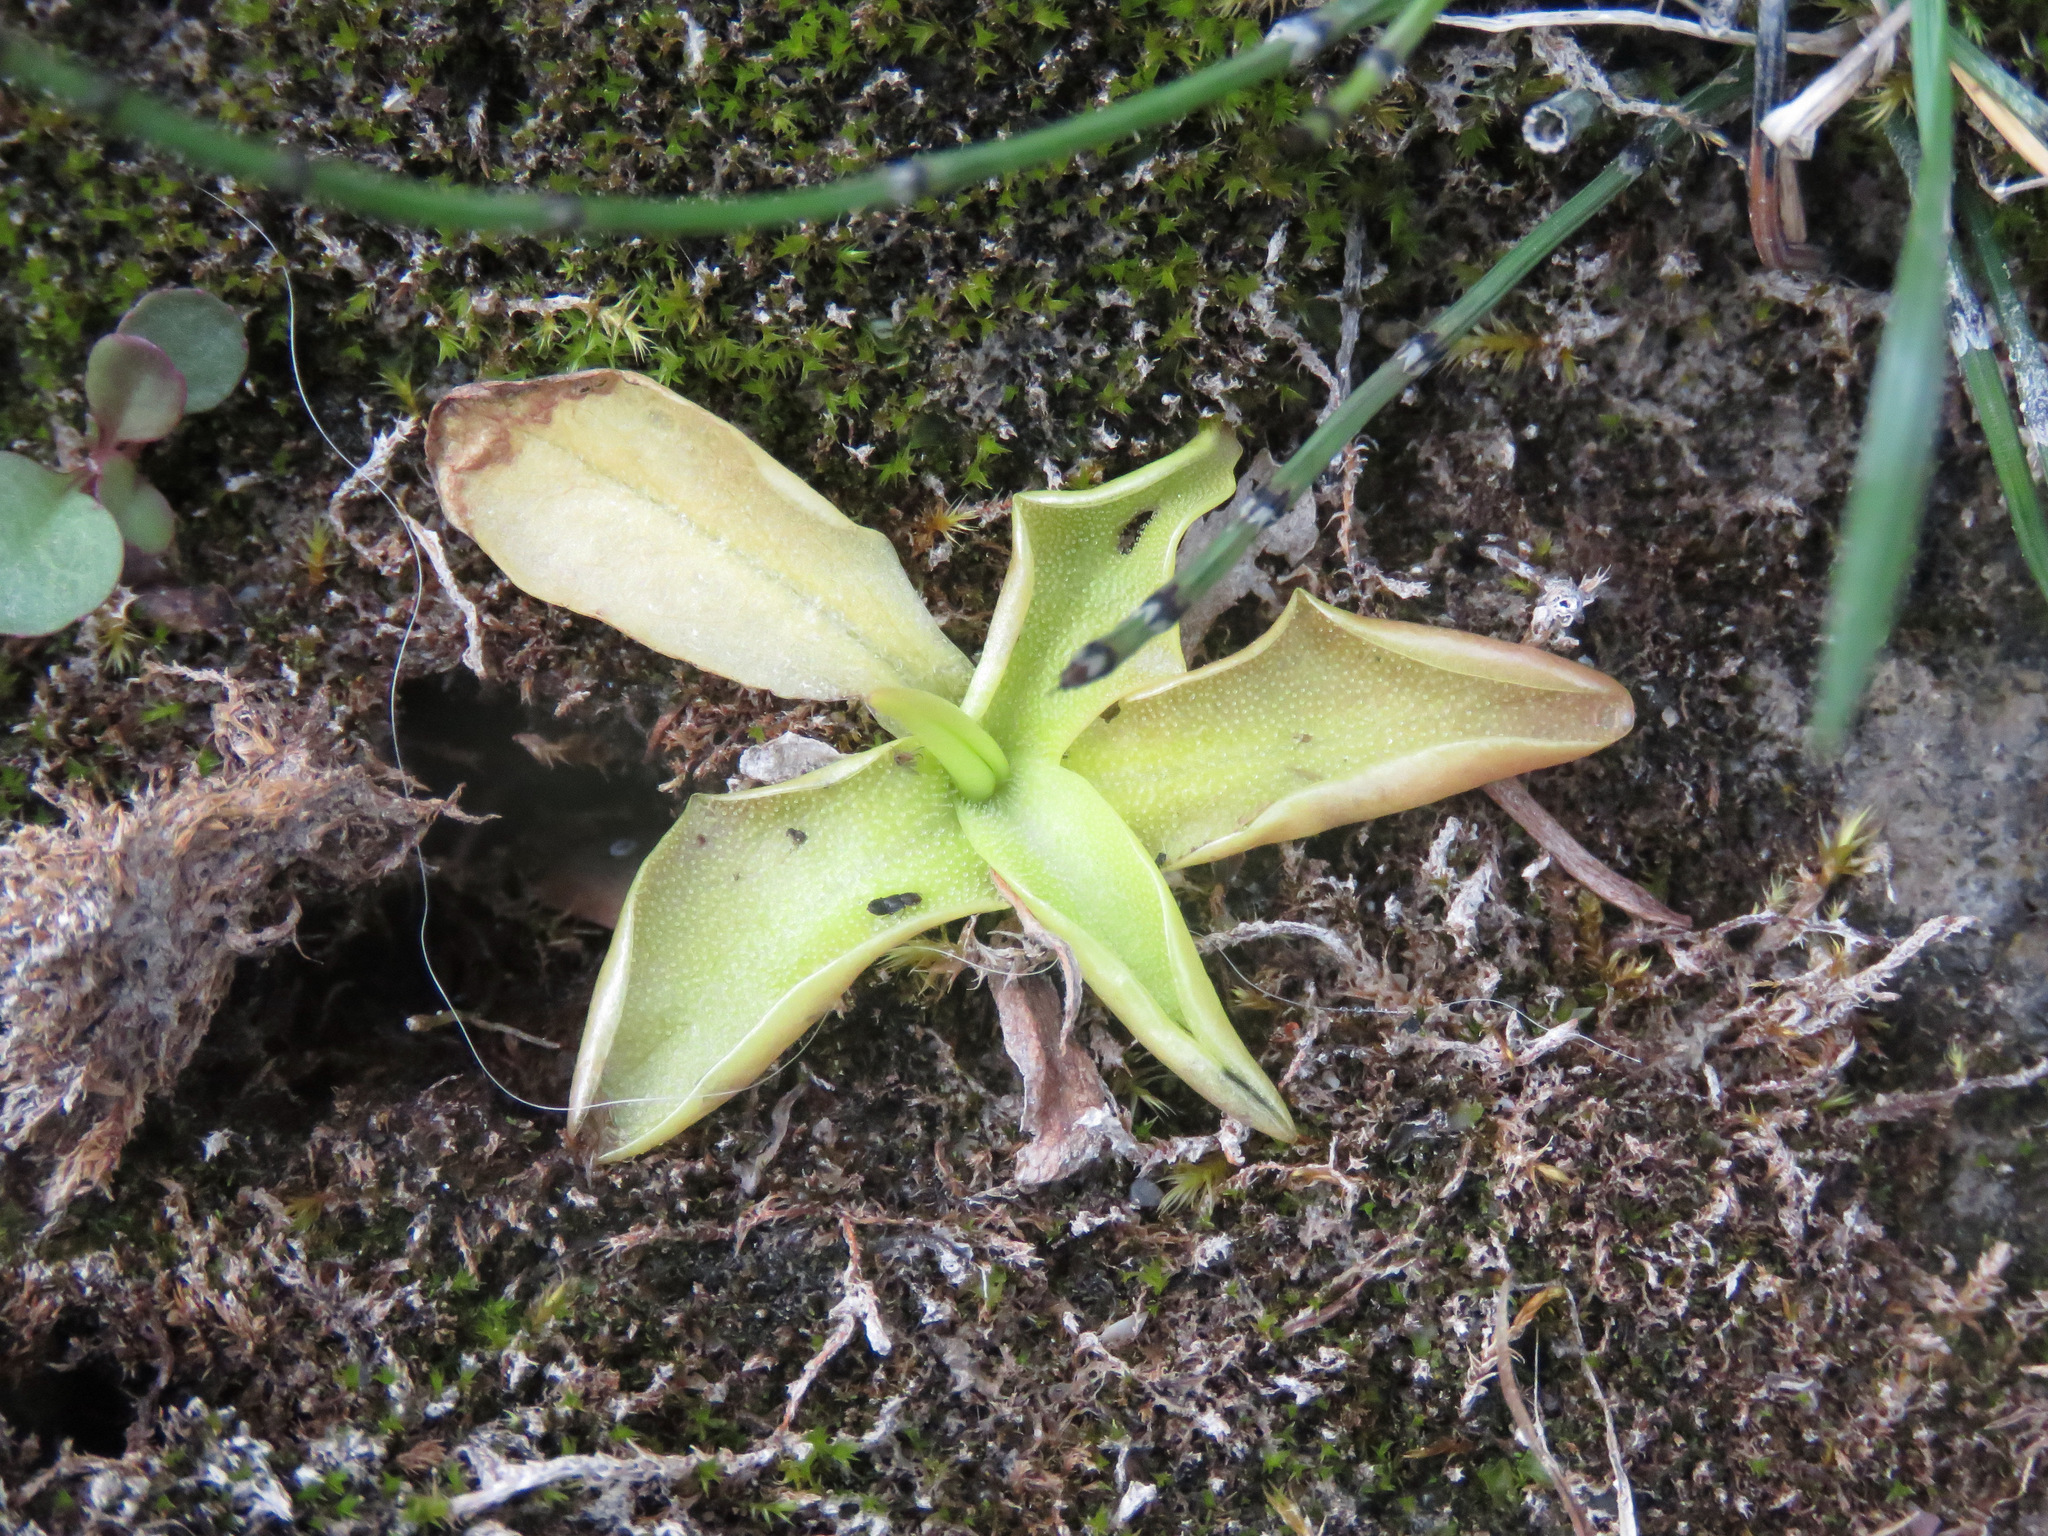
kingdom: Plantae
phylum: Tracheophyta
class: Magnoliopsida
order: Lamiales
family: Lentibulariaceae
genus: Pinguicula
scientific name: Pinguicula vulgaris
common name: Common butterwort
